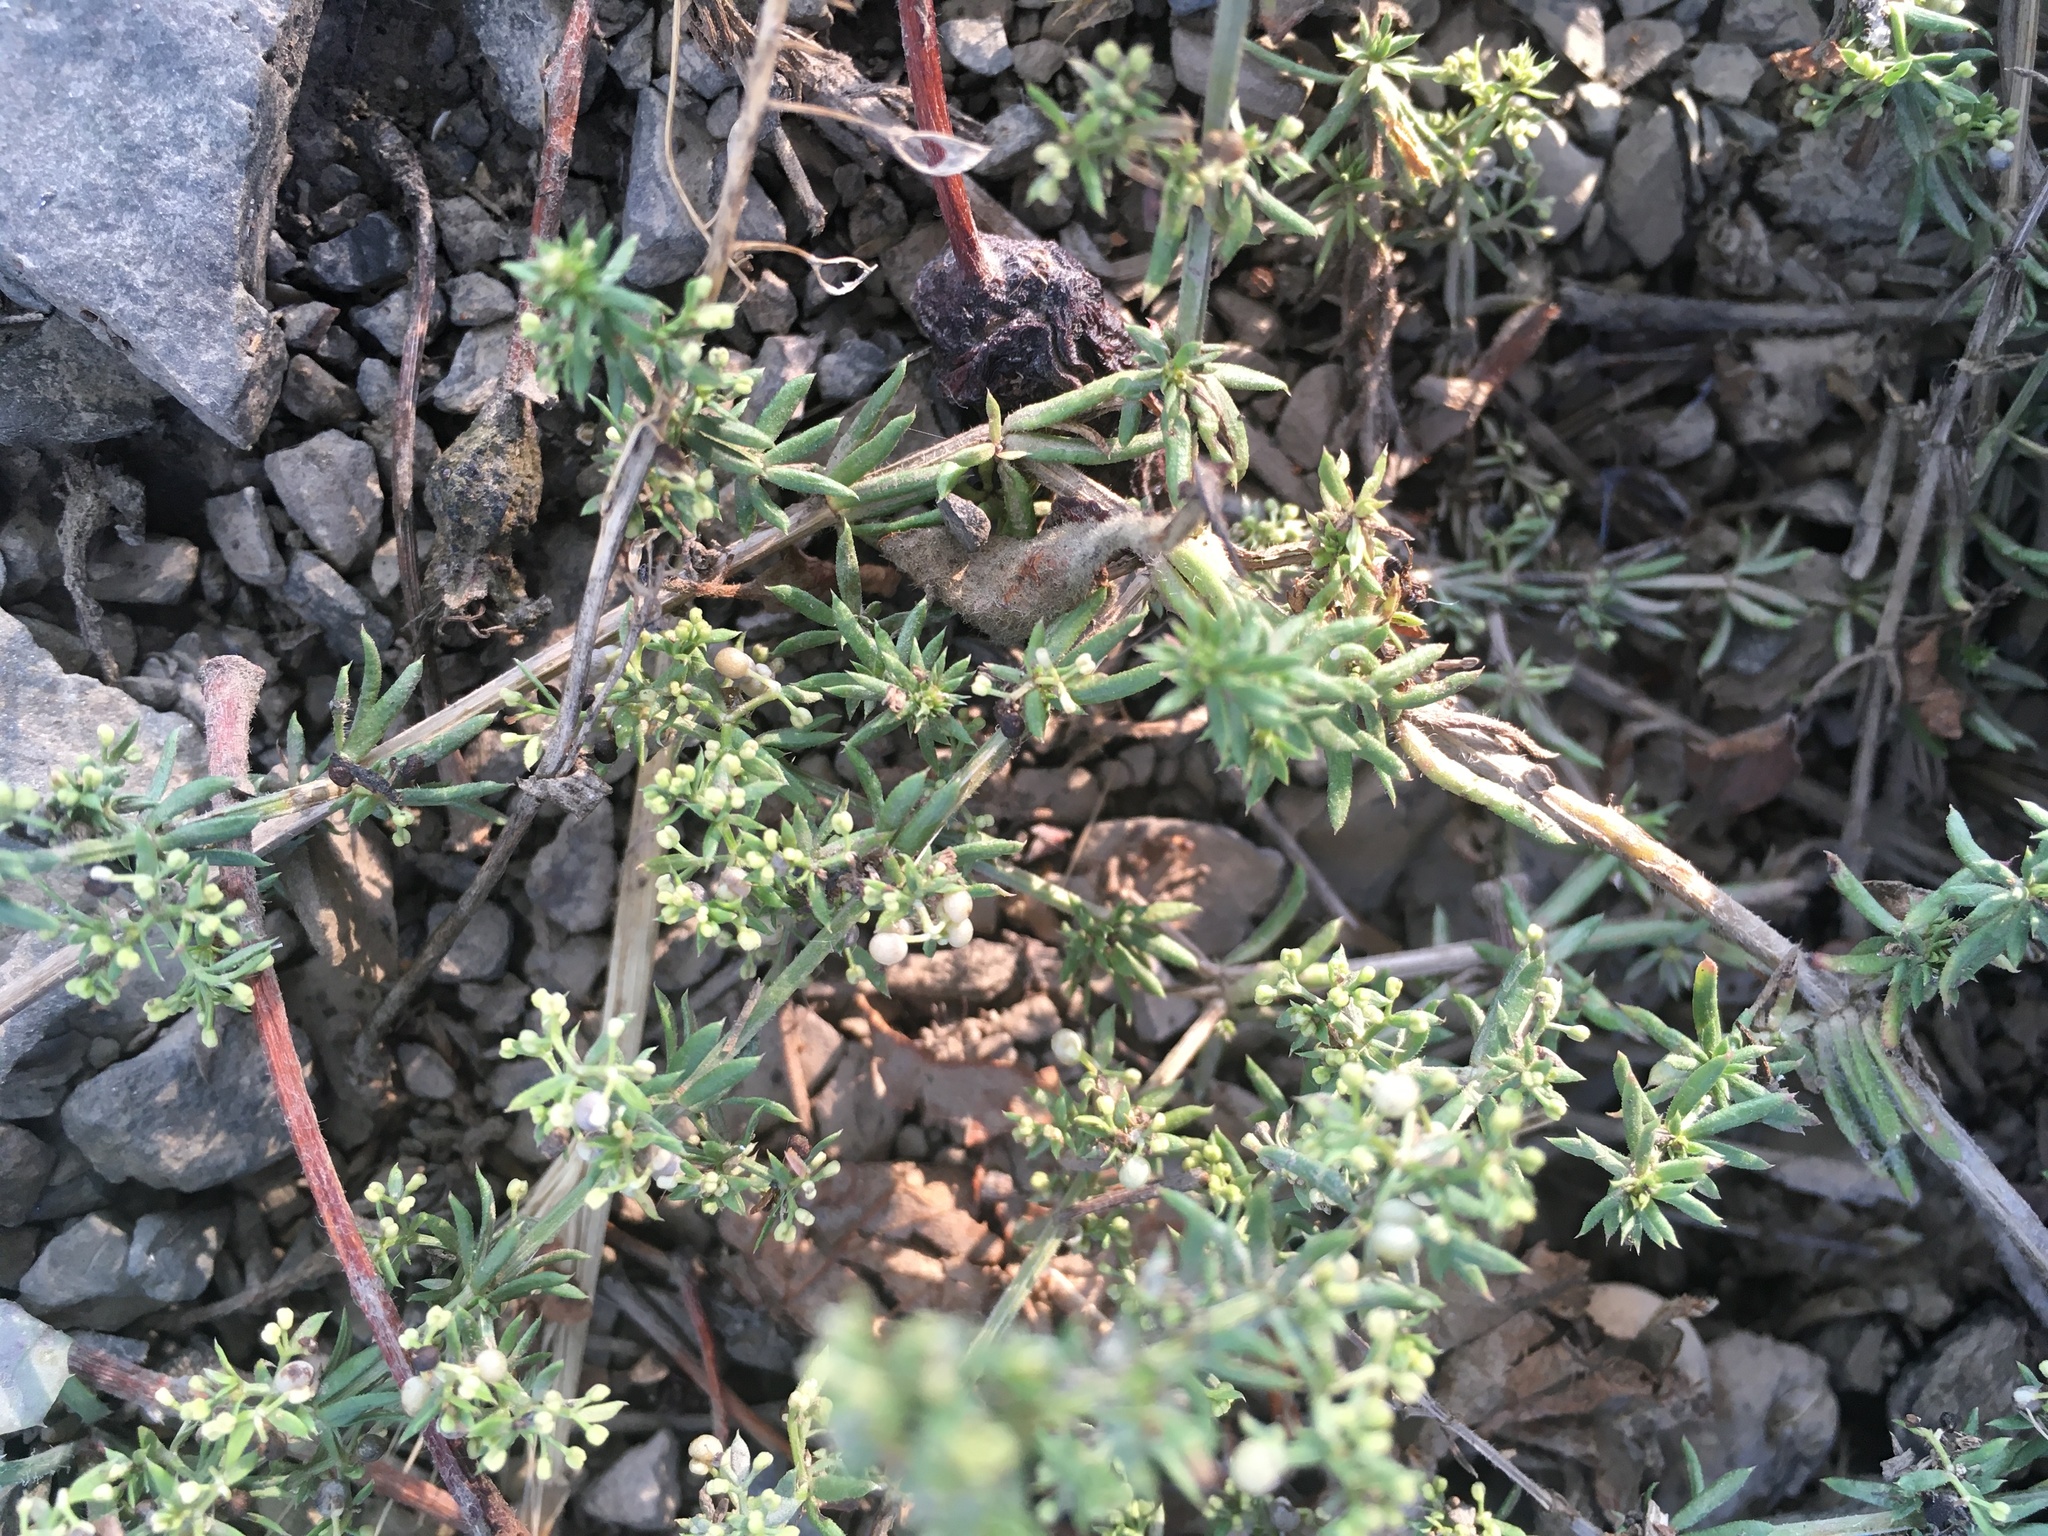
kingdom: Plantae
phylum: Tracheophyta
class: Magnoliopsida
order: Gentianales
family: Rubiaceae
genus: Galium
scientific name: Galium humifusum
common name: Spreading bedstraw
